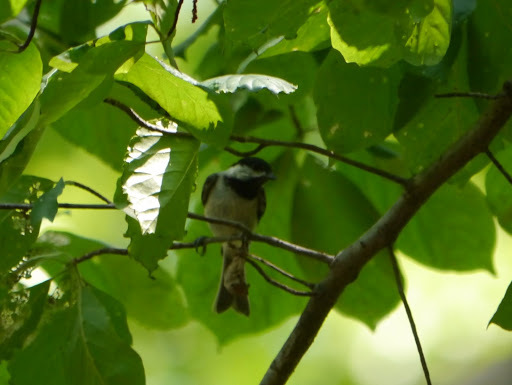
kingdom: Animalia
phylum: Chordata
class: Aves
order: Passeriformes
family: Paridae
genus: Poecile
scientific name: Poecile carolinensis
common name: Carolina chickadee
